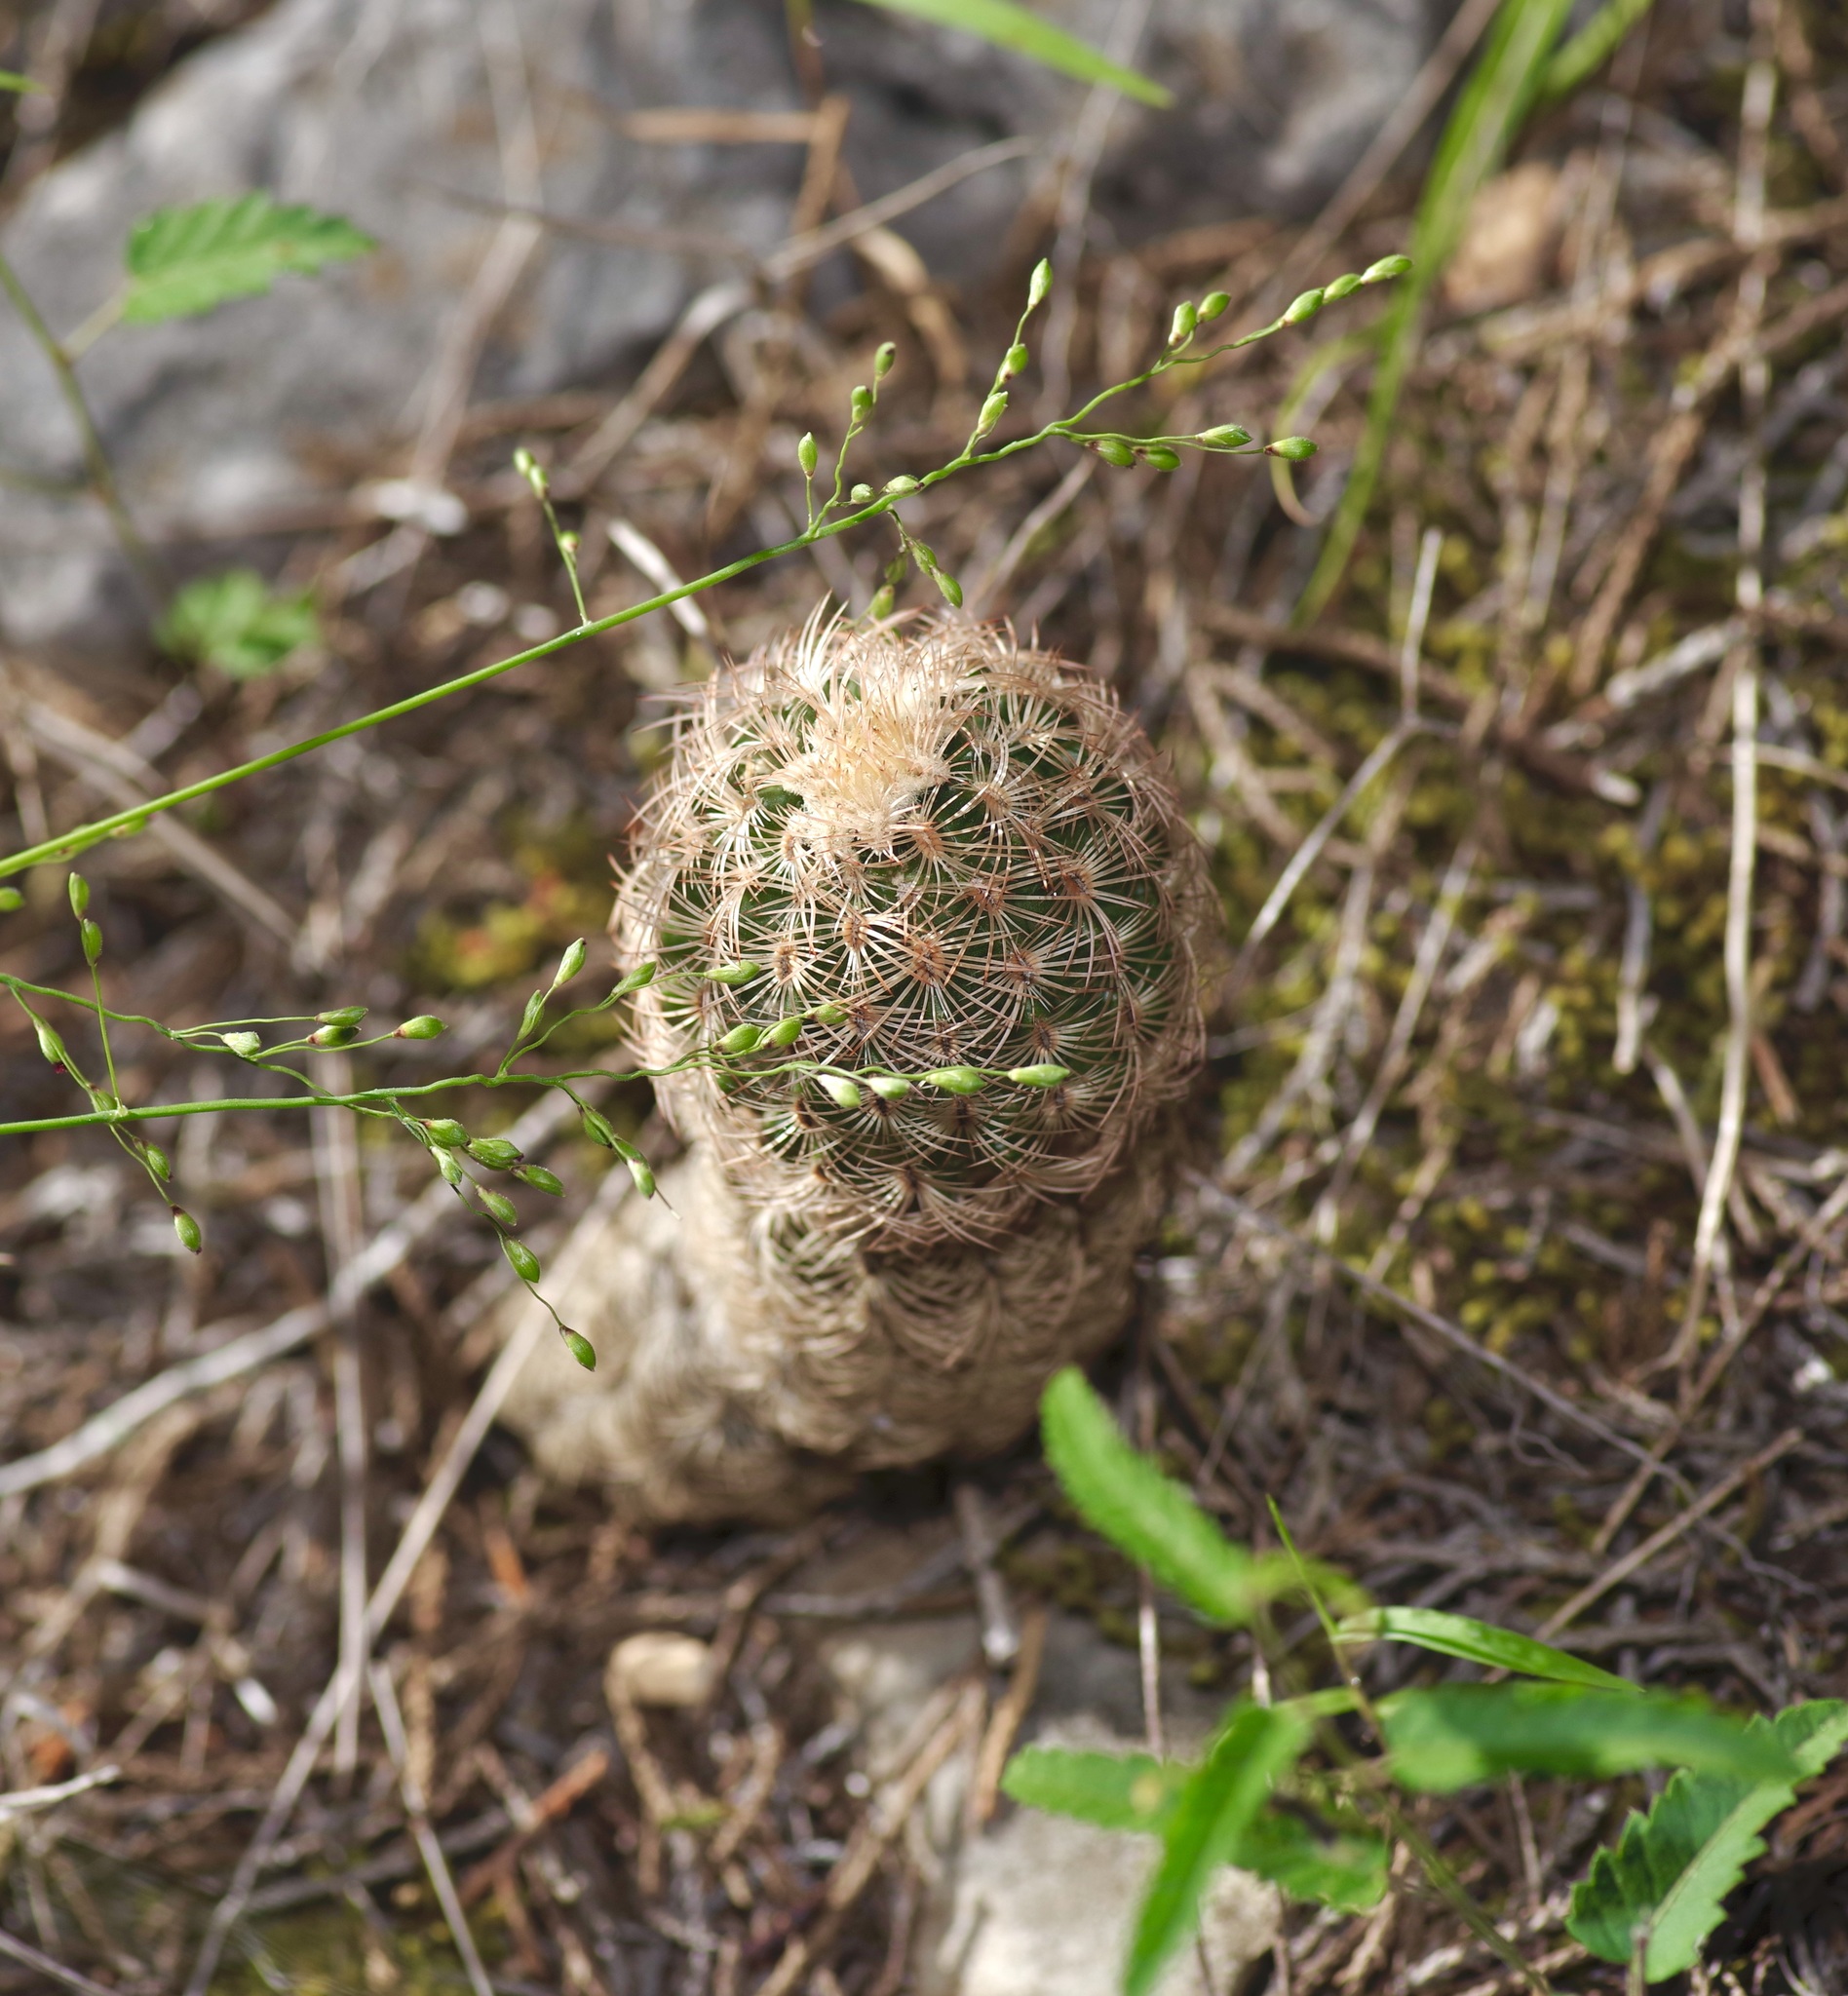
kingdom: Plantae
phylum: Tracheophyta
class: Magnoliopsida
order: Caryophyllales
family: Cactaceae
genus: Echinocereus
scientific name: Echinocereus reichenbachii
